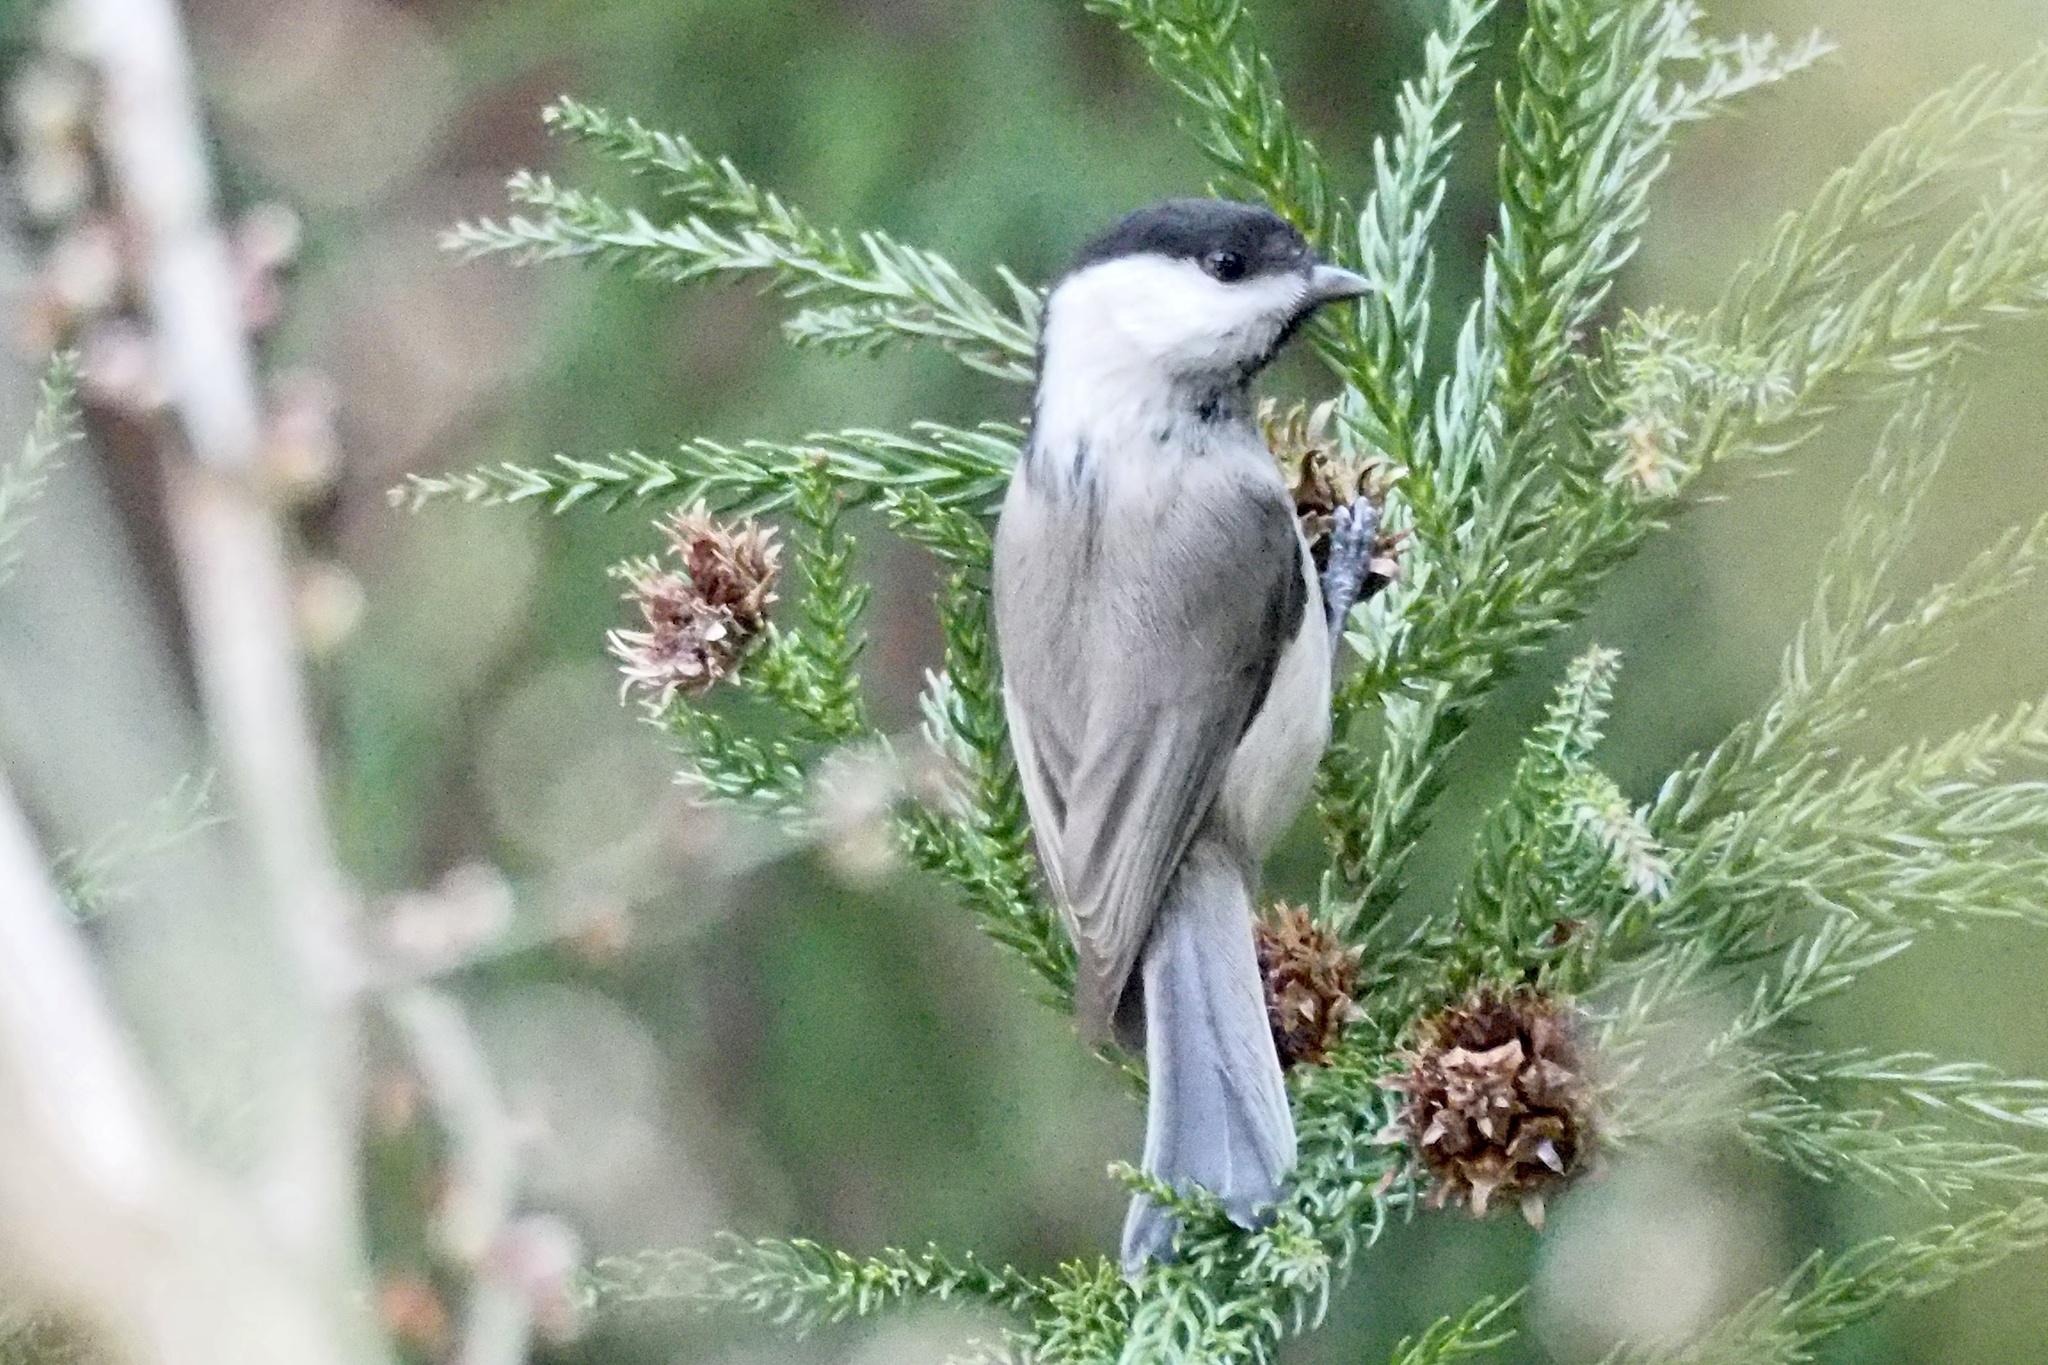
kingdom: Animalia
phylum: Chordata
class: Aves
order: Passeriformes
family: Paridae
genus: Poecile
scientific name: Poecile montanus
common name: Willow tit
